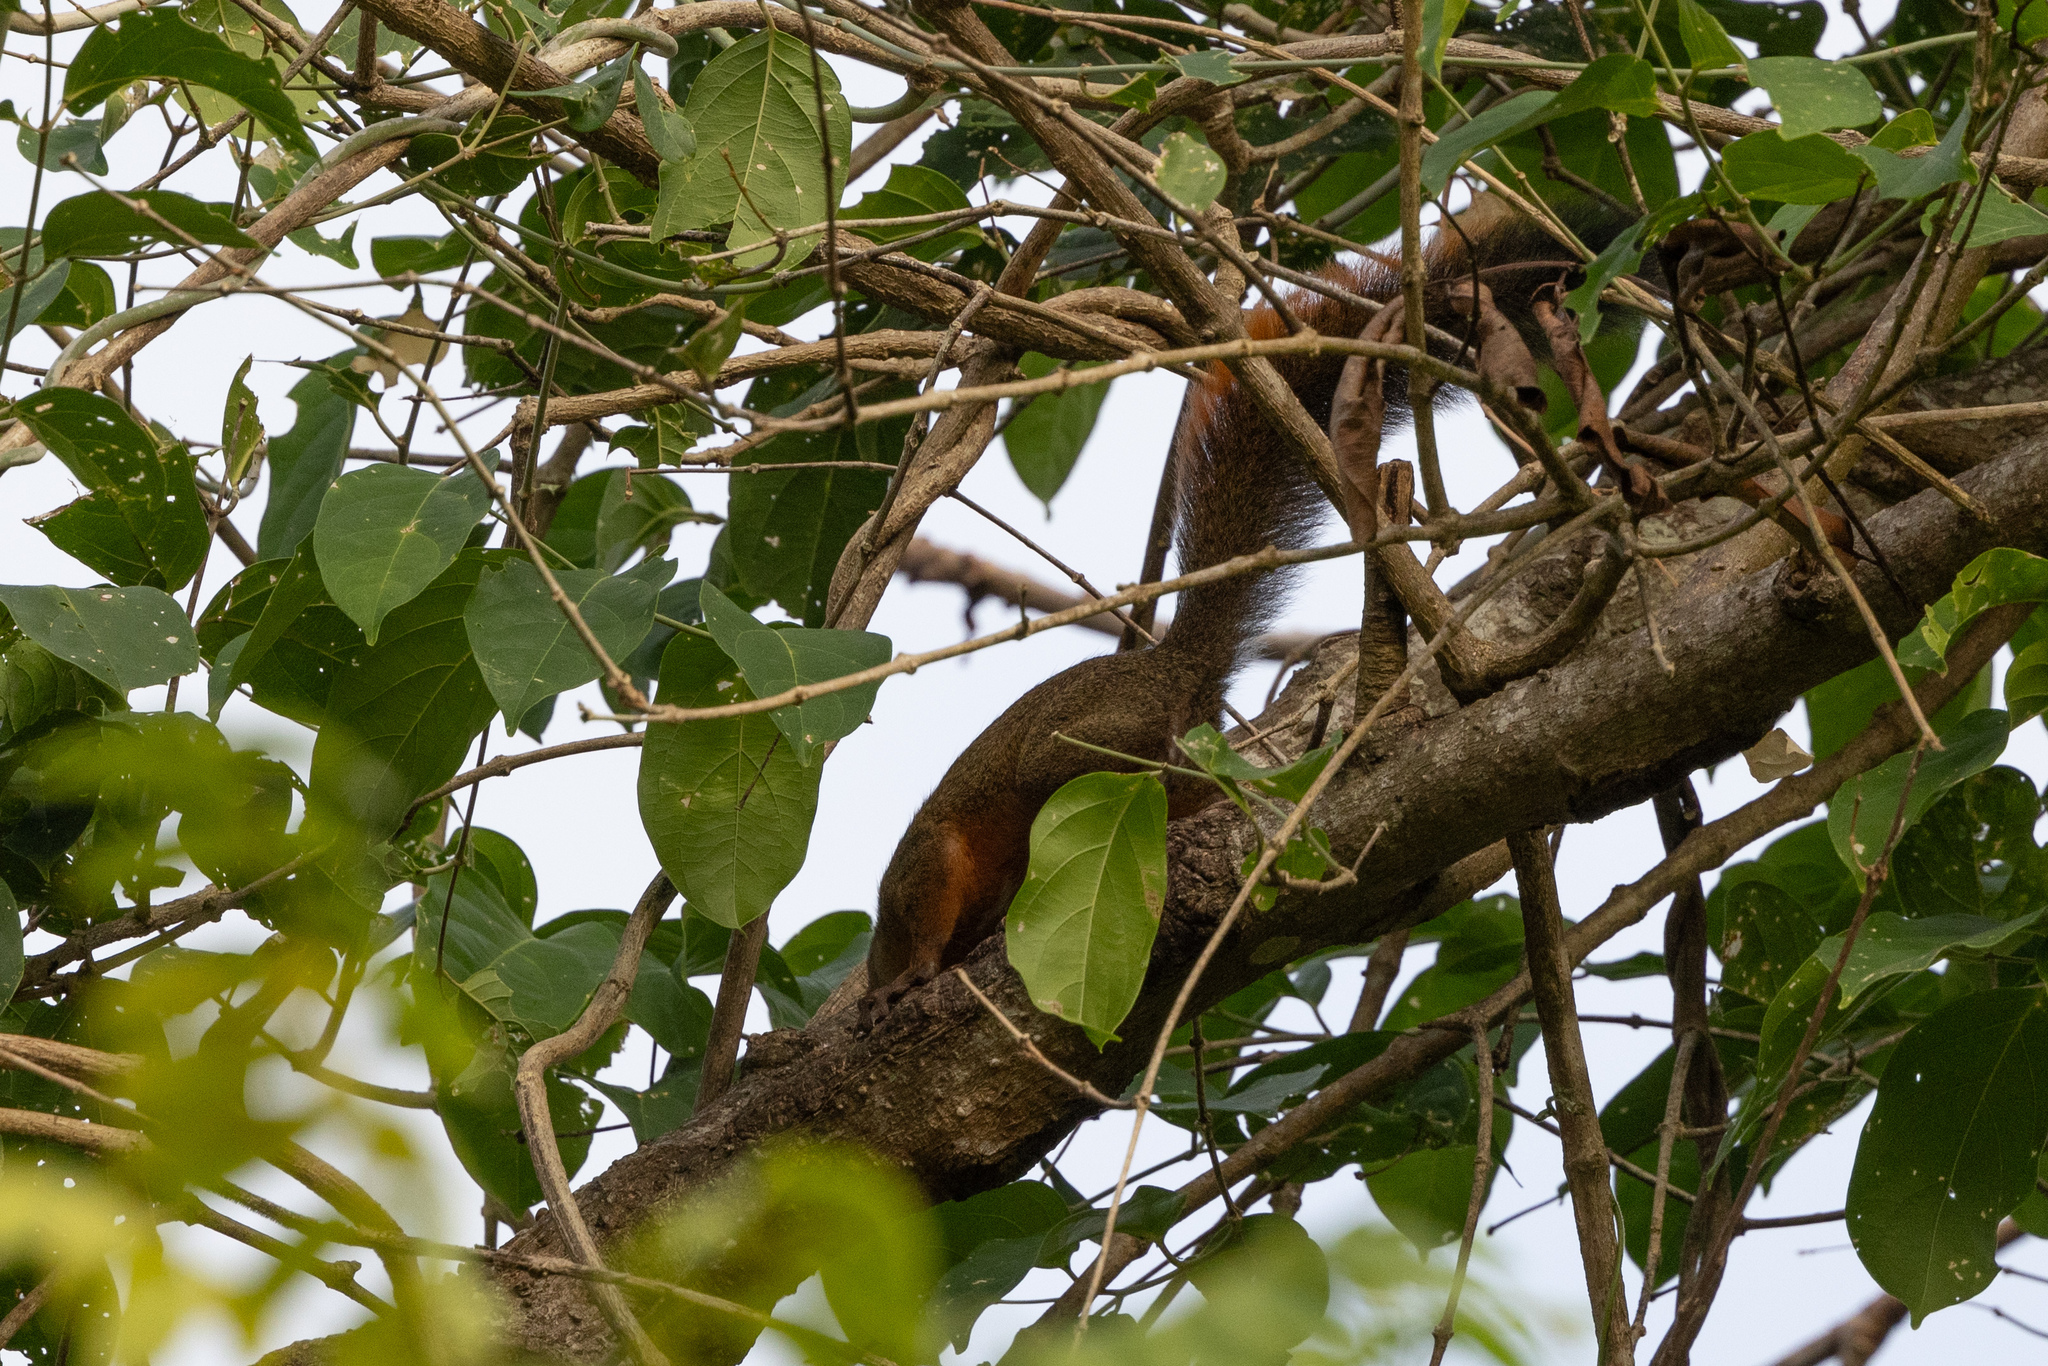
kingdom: Animalia
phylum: Chordata
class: Mammalia
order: Rodentia
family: Sciuridae
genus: Sciurus
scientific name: Sciurus granatensis
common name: Red-tailed squirrel
